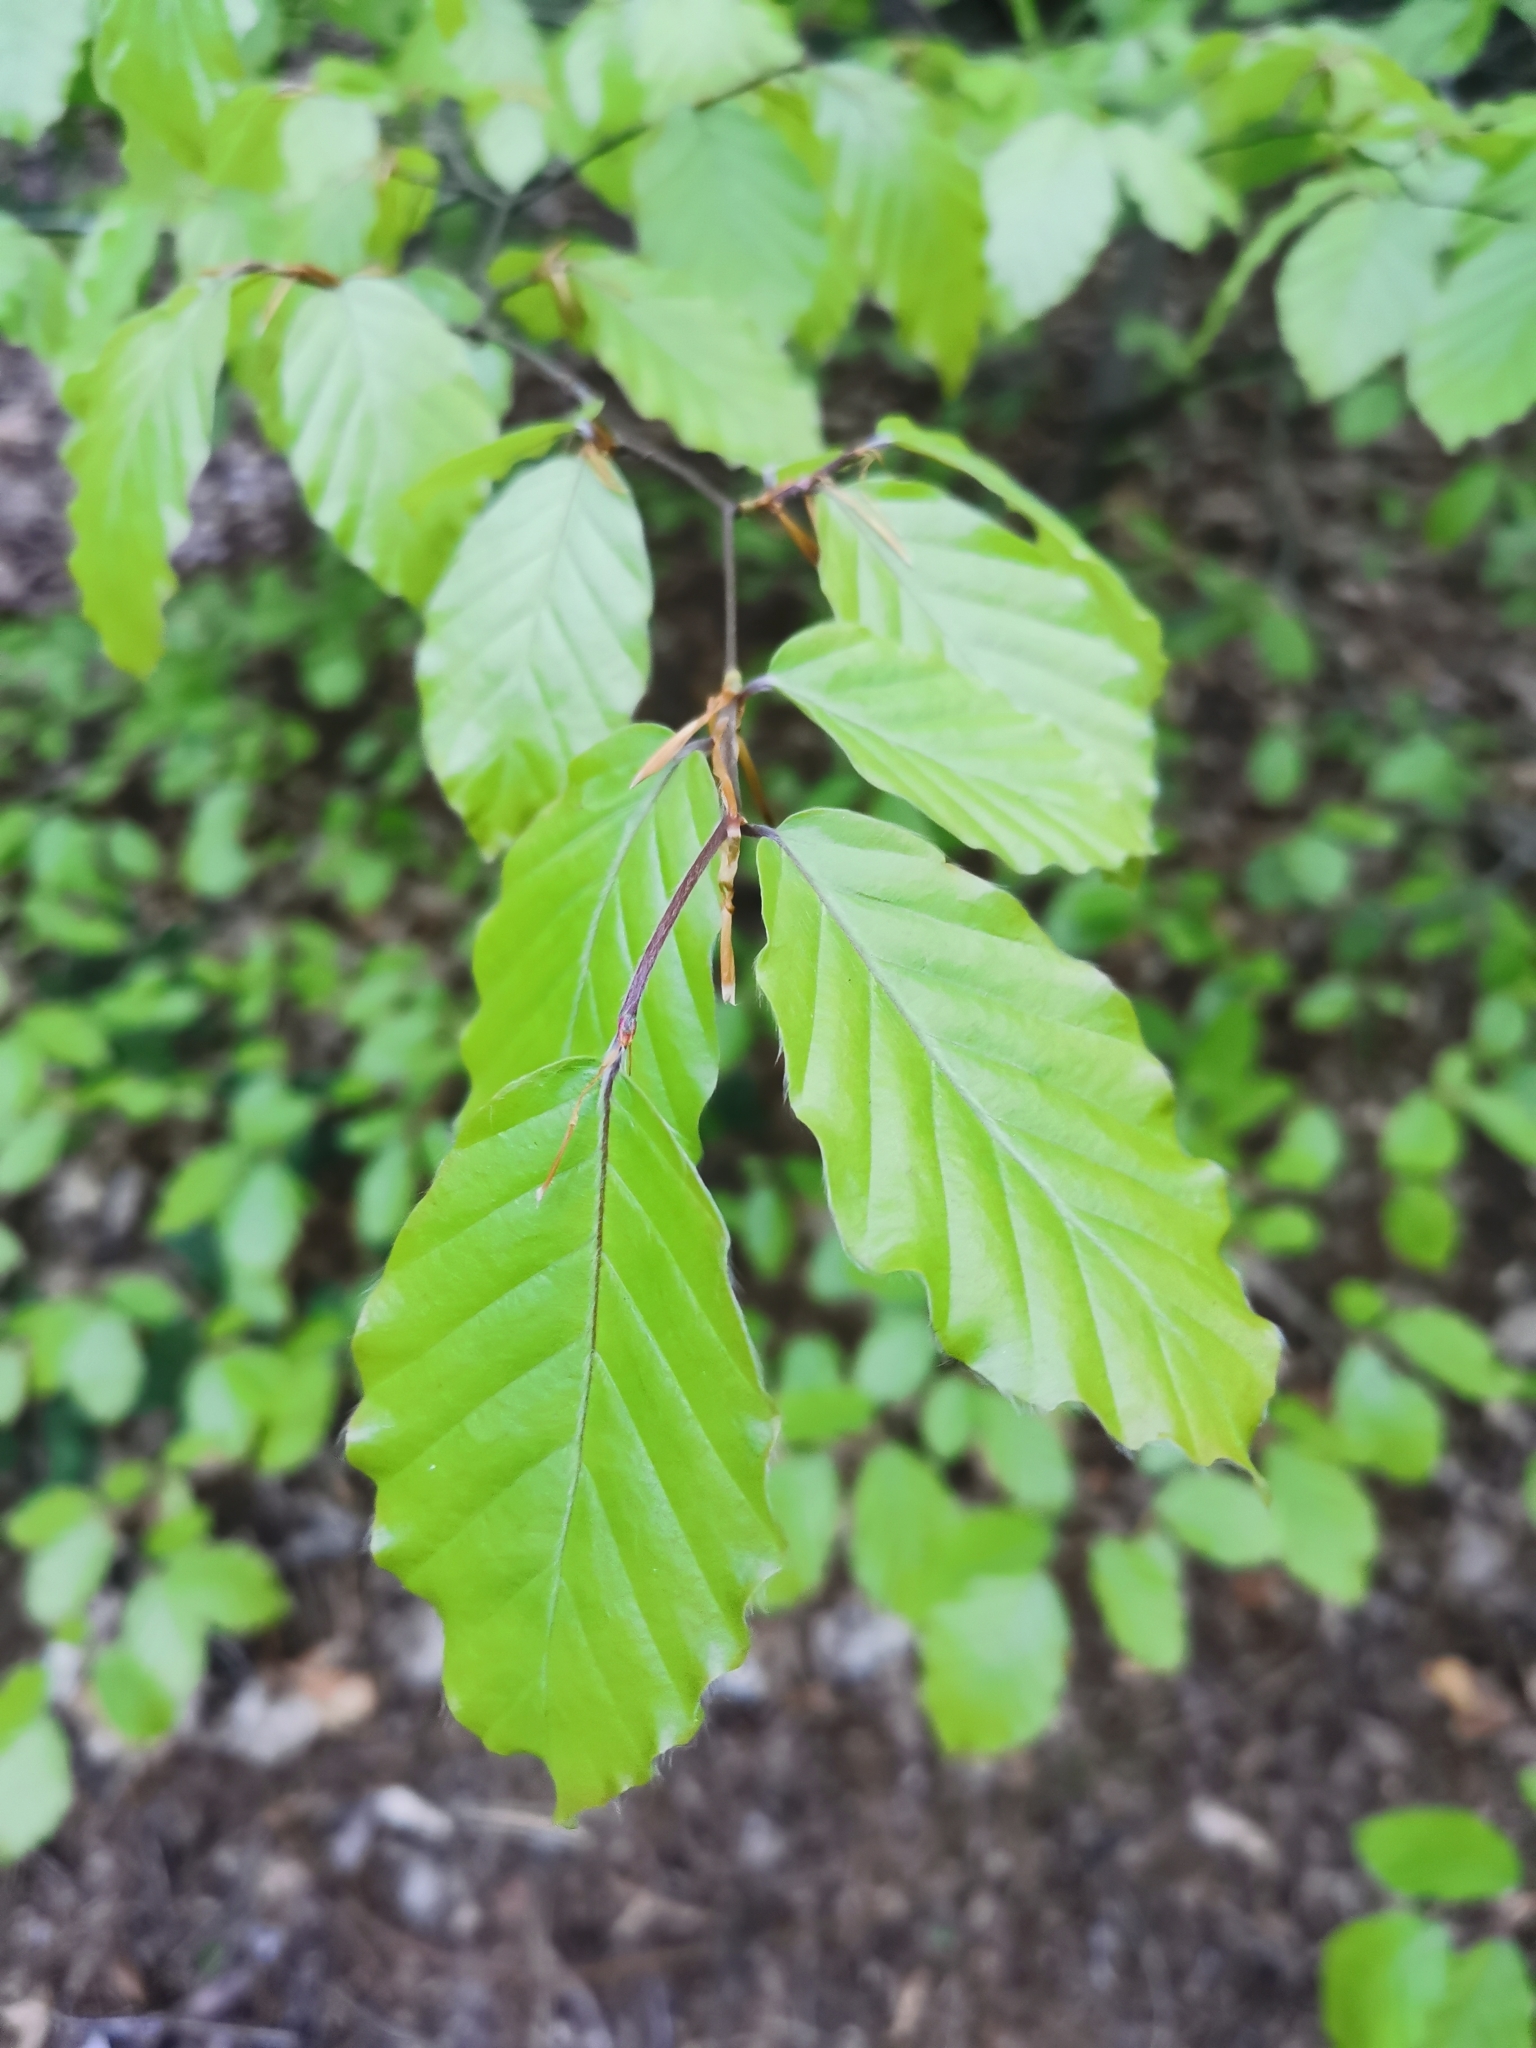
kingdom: Plantae
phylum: Tracheophyta
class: Magnoliopsida
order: Fagales
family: Fagaceae
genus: Fagus
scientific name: Fagus sylvatica
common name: Beech
